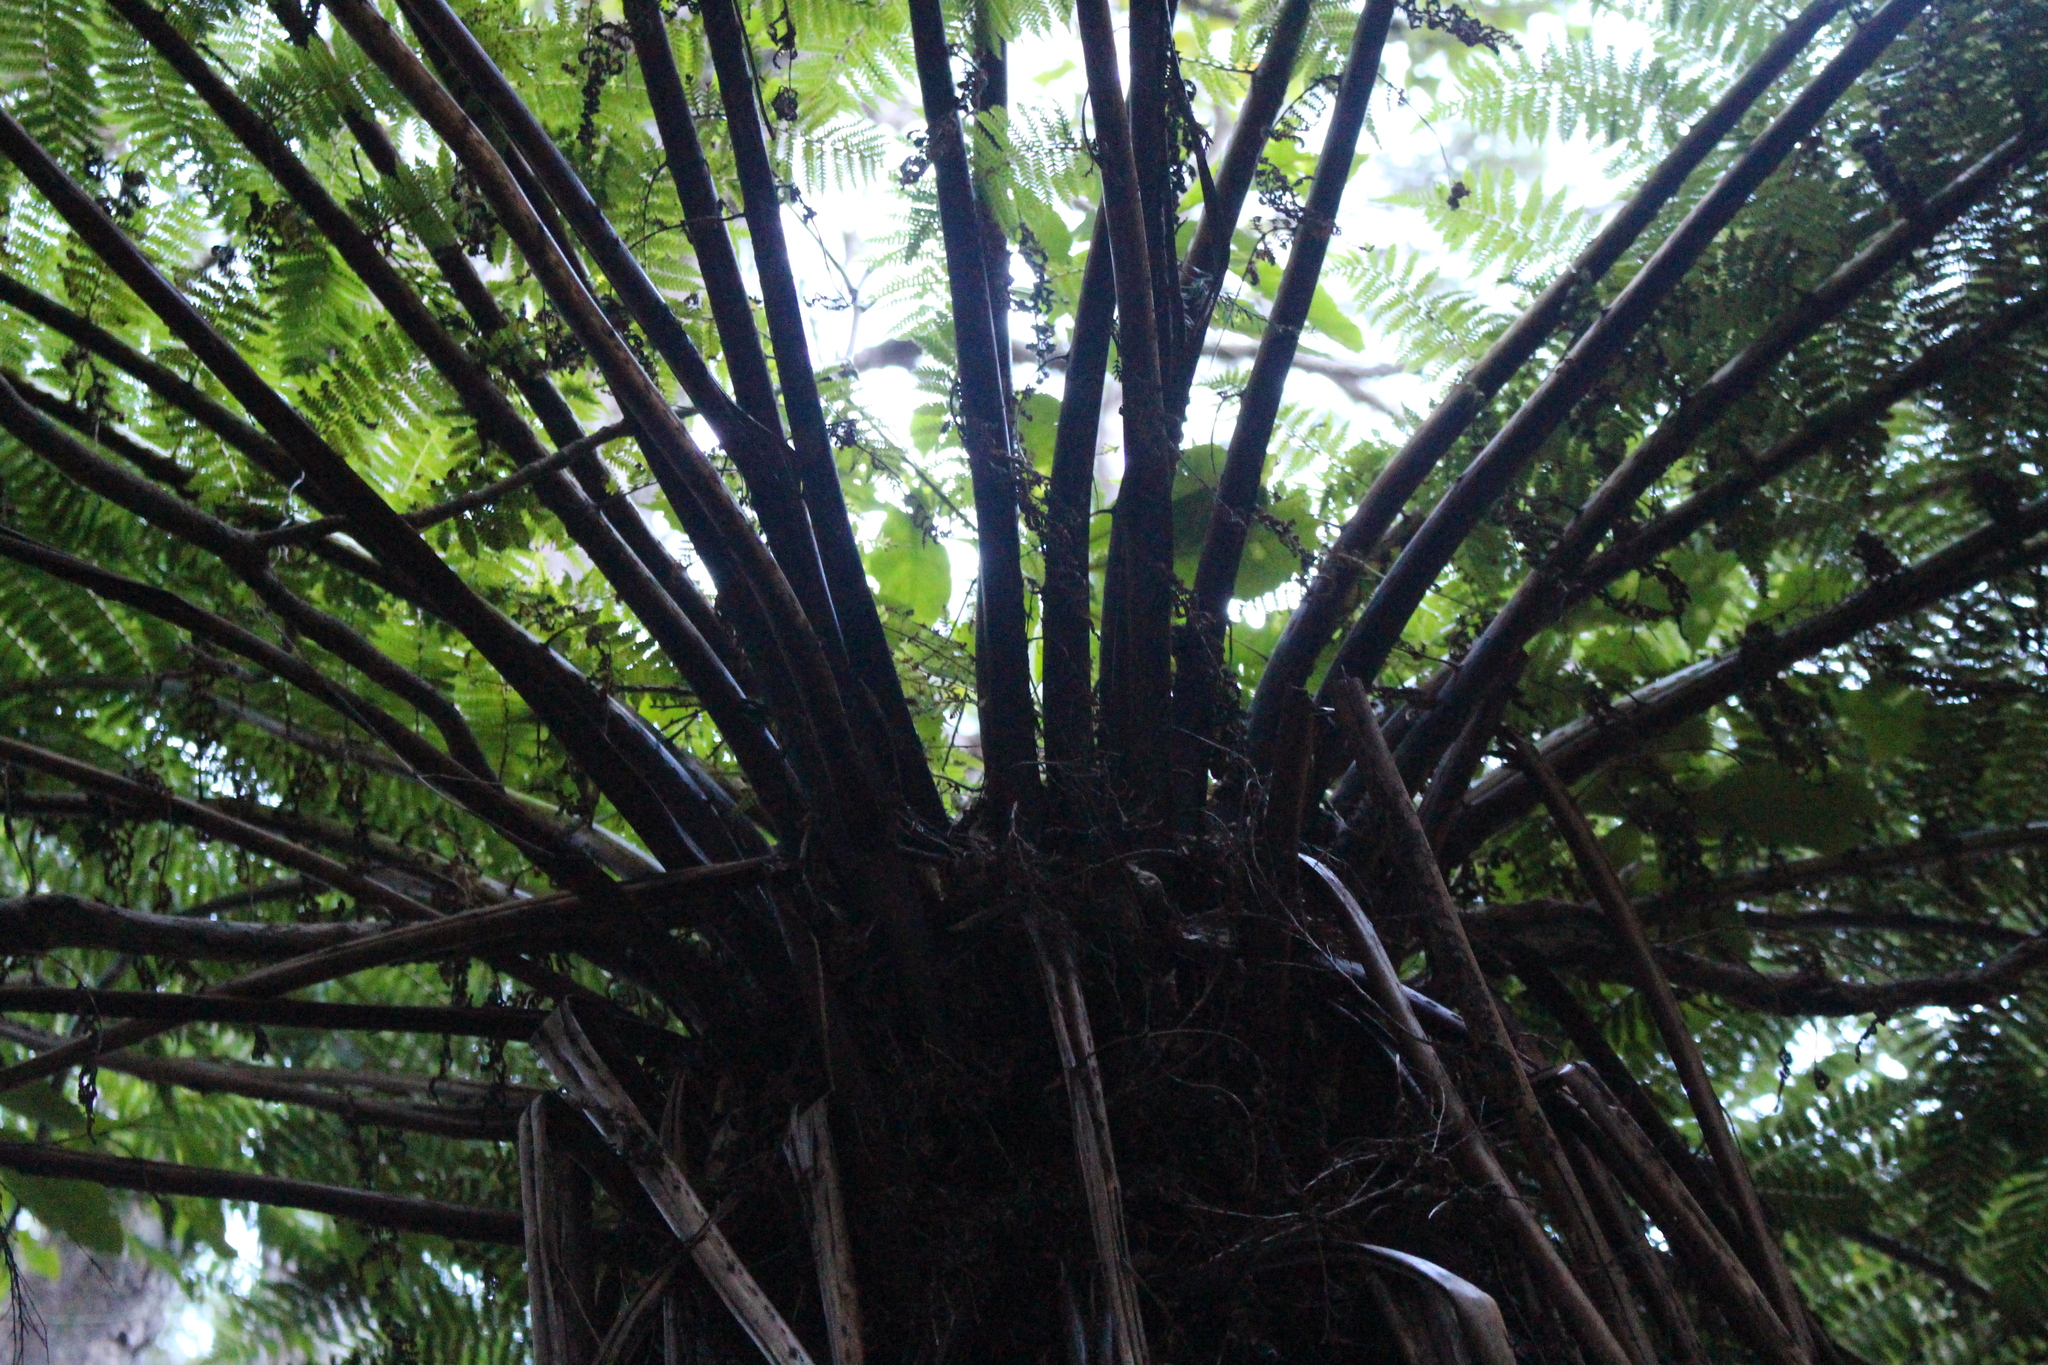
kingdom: Plantae
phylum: Tracheophyta
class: Polypodiopsida
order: Cyatheales
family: Cyatheaceae
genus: Alsophila
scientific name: Alsophila smithii
